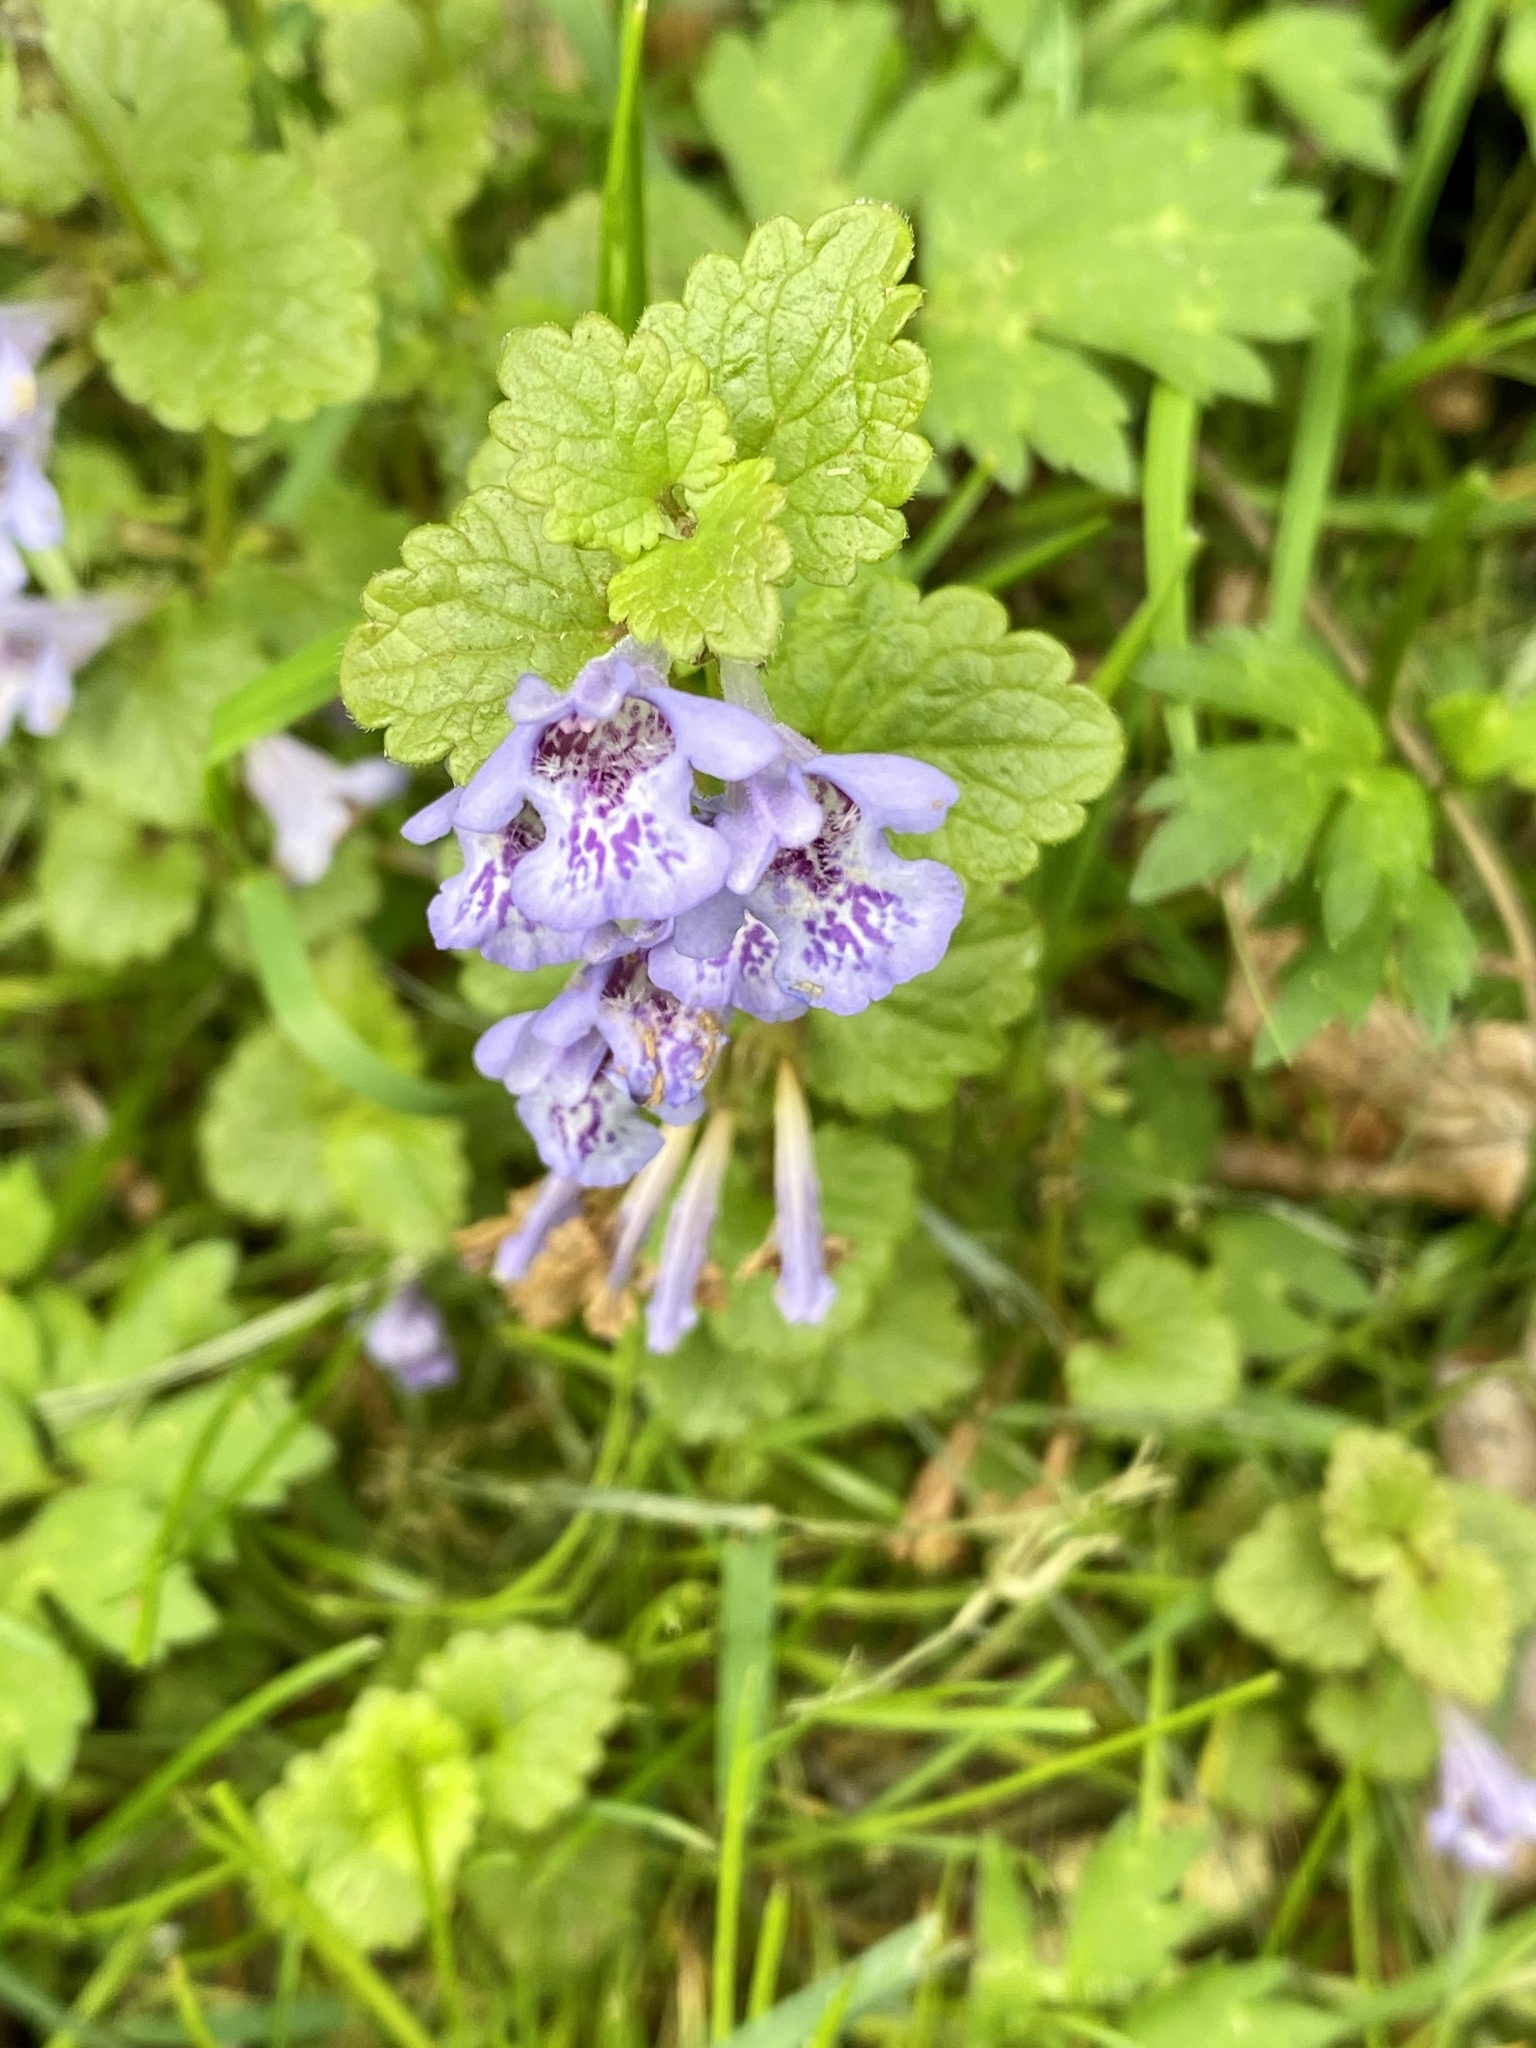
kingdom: Plantae
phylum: Tracheophyta
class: Magnoliopsida
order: Lamiales
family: Lamiaceae
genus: Glechoma
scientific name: Glechoma hederacea
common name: Ground ivy
